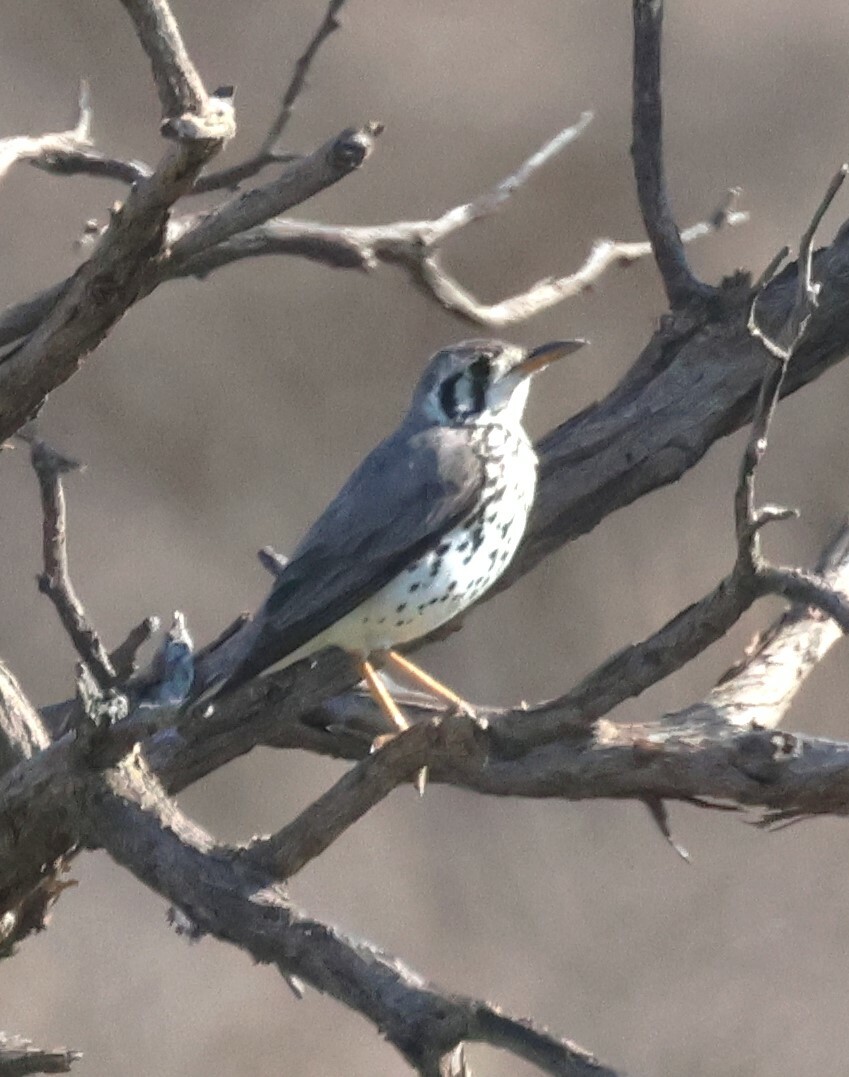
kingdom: Animalia
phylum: Chordata
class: Aves
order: Passeriformes
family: Turdidae
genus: Psophocichla
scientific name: Psophocichla litsitsirupa
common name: Groundscraper thrush
